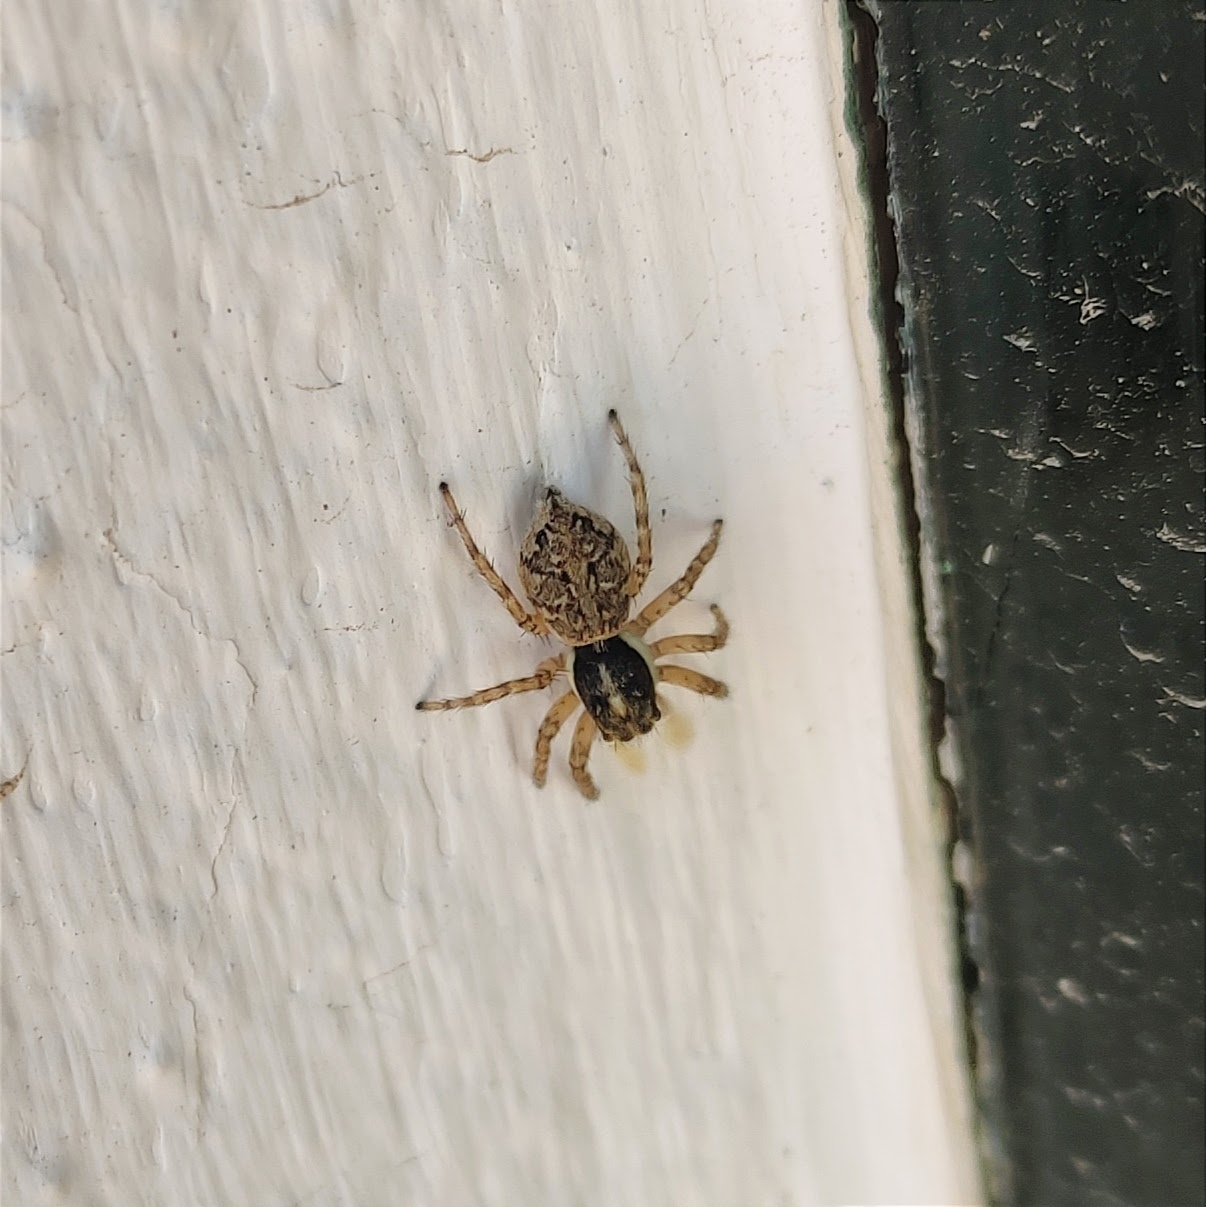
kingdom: Animalia
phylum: Arthropoda
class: Arachnida
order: Araneae
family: Salticidae
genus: Menemerus
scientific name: Menemerus semilimbatus
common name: Jumping spider
